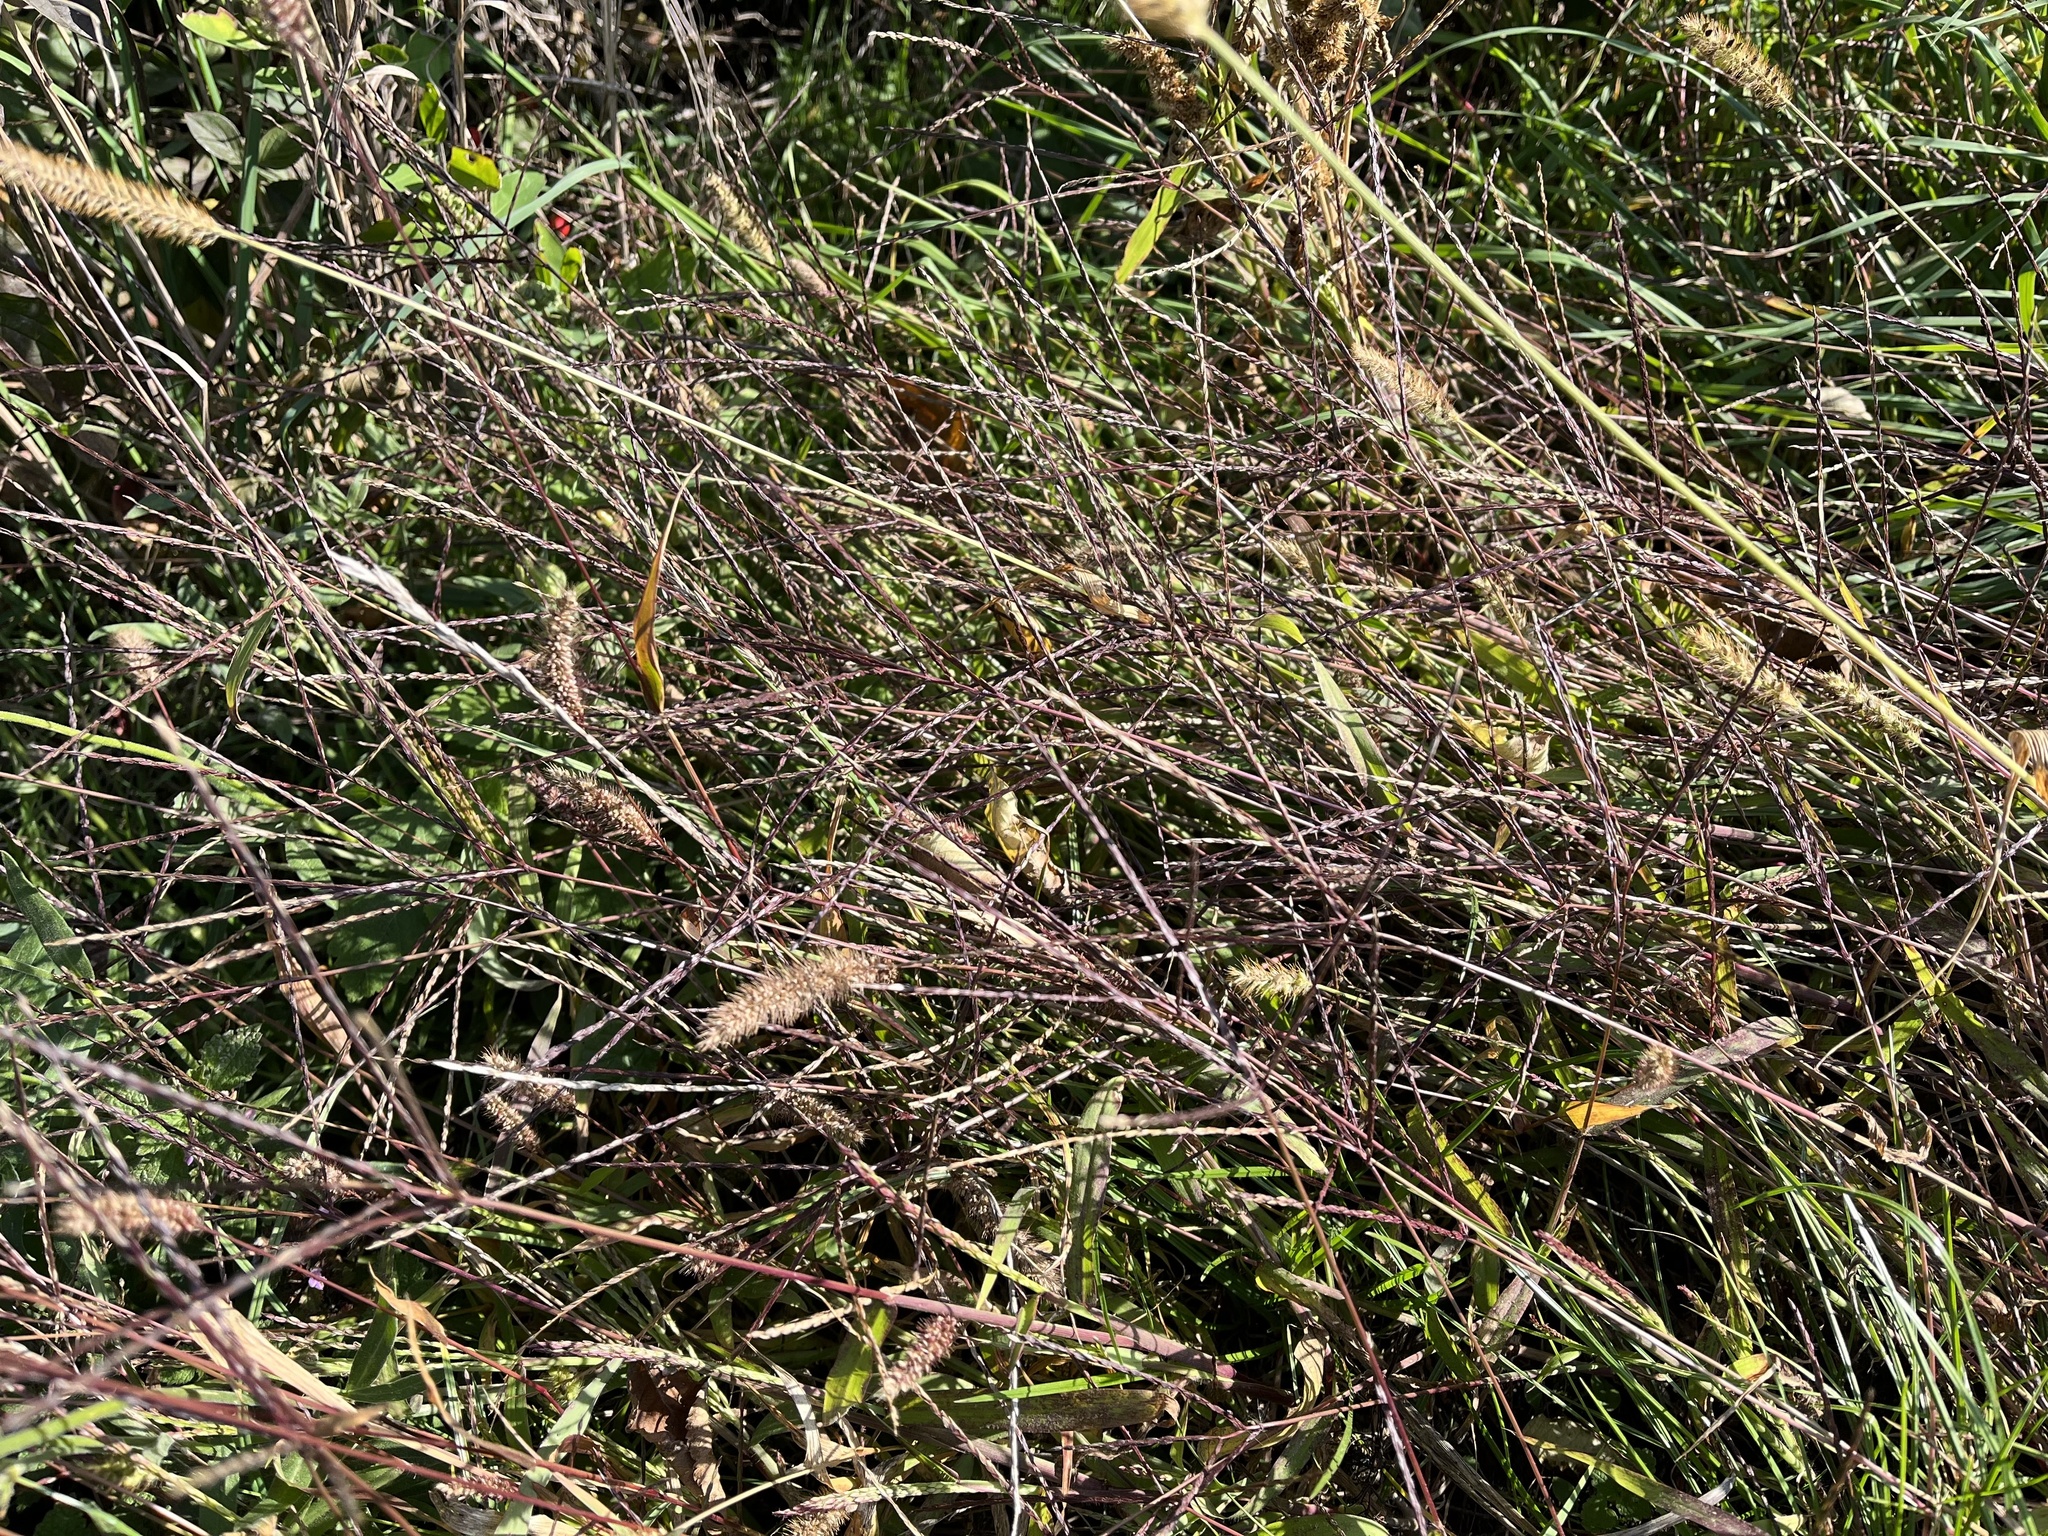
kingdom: Plantae
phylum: Tracheophyta
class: Liliopsida
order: Poales
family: Poaceae
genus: Digitaria
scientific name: Digitaria sanguinalis
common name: Hairy crabgrass
